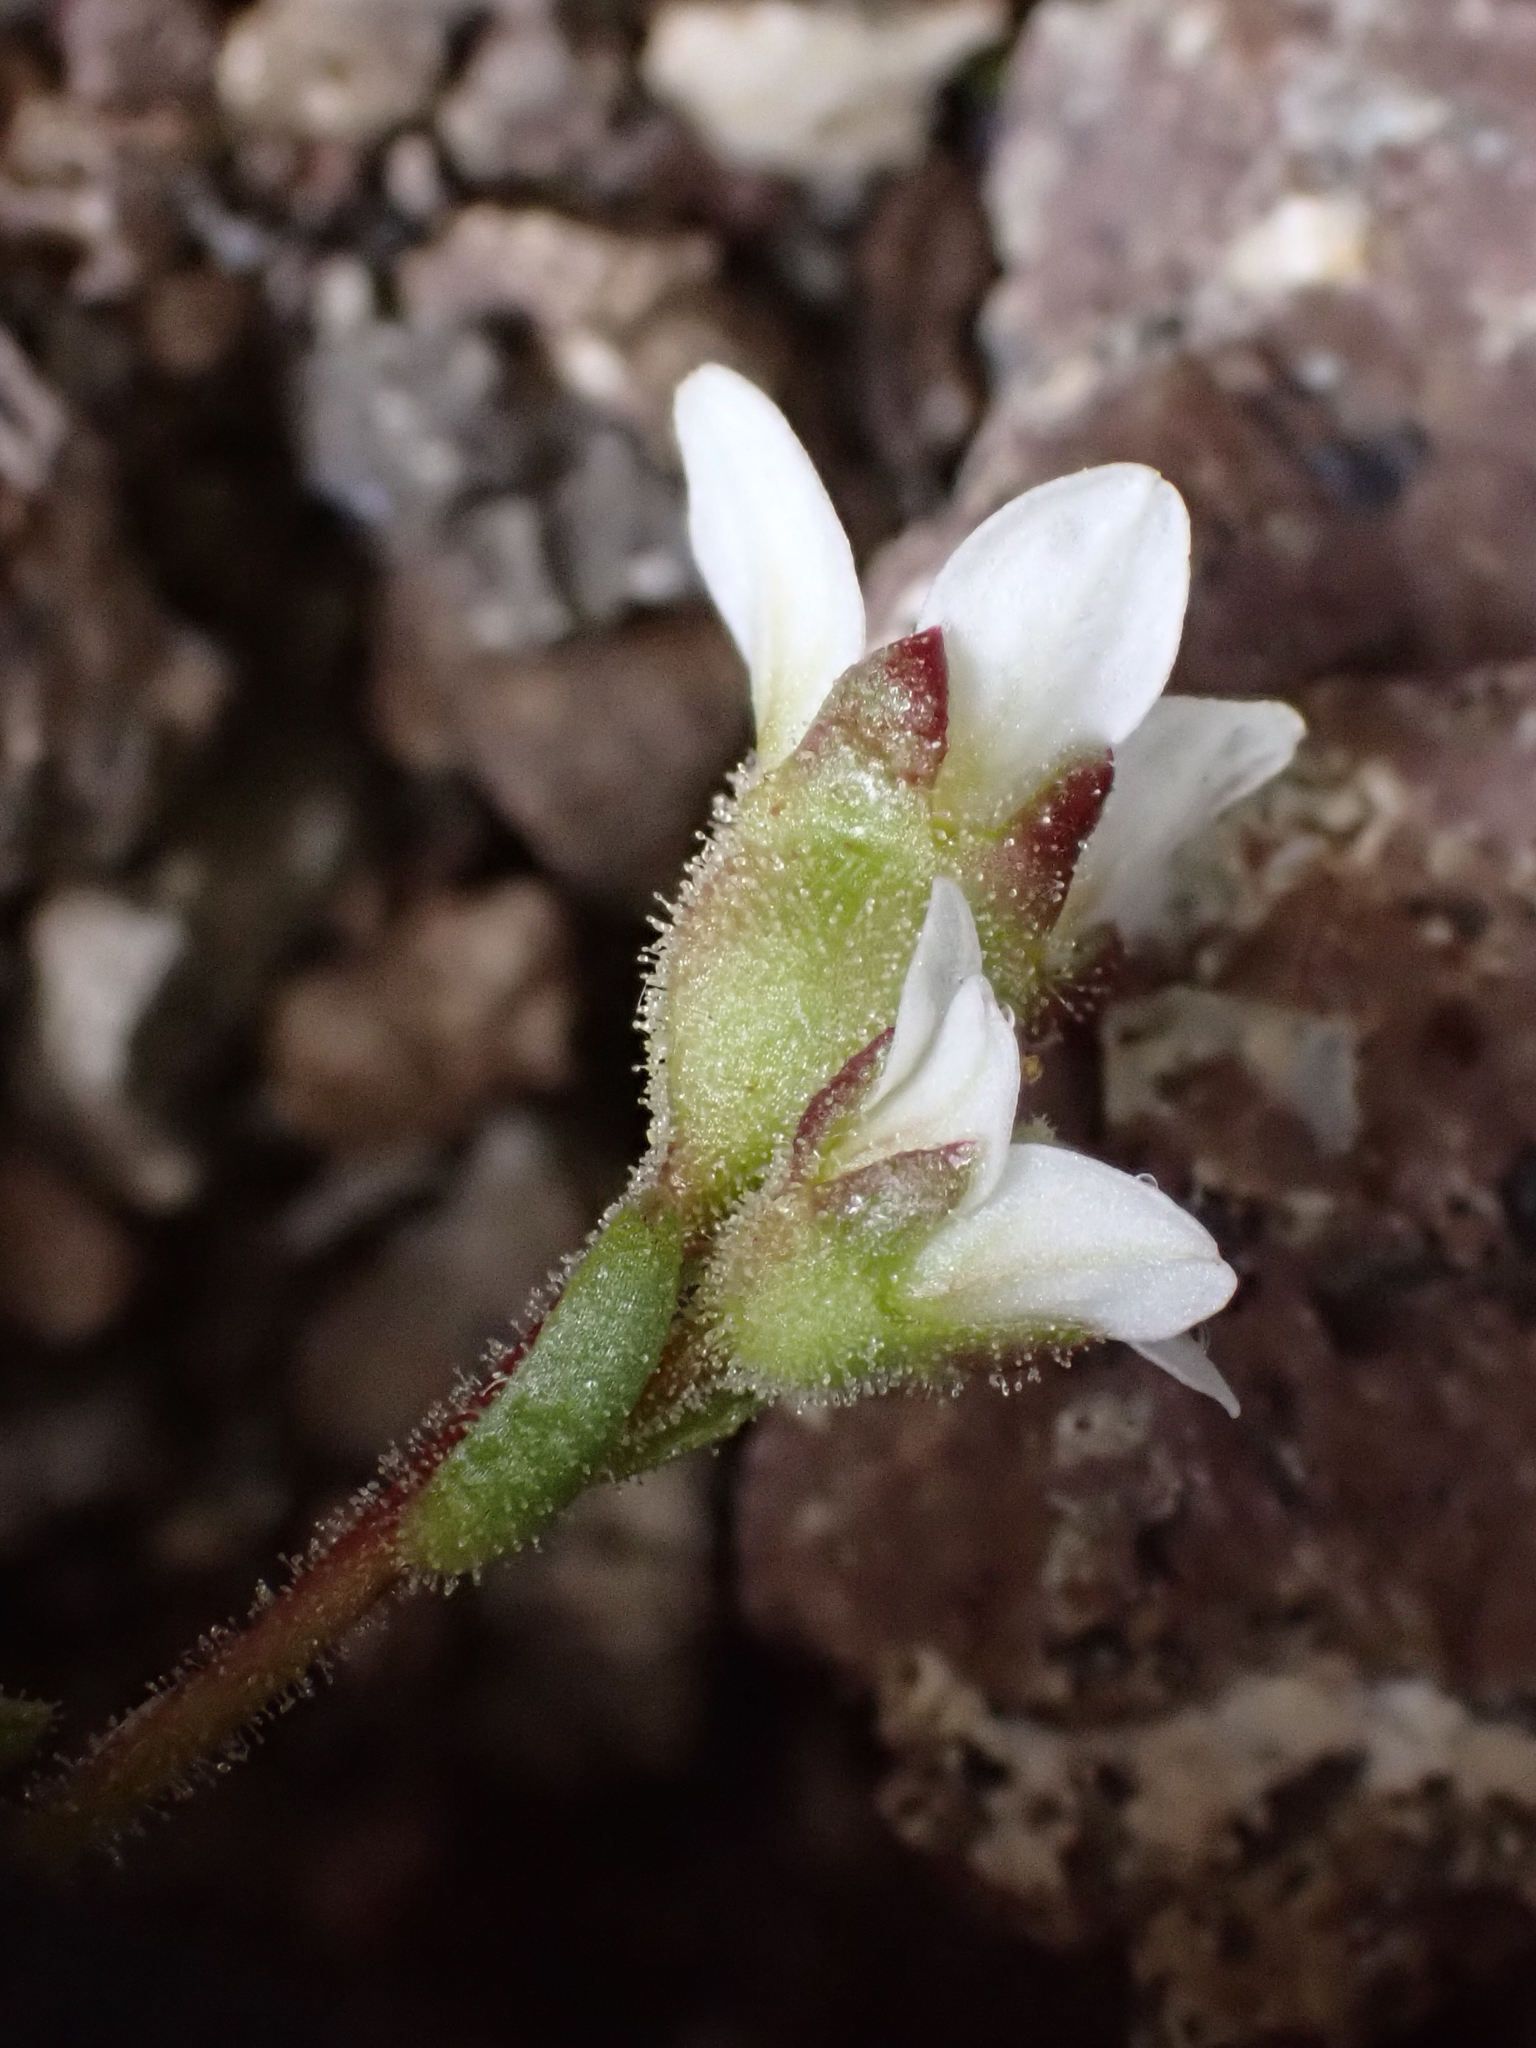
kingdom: Plantae
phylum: Tracheophyta
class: Magnoliopsida
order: Saxifragales
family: Saxifragaceae
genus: Saxifraga
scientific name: Saxifraga cespitosa
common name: Tufted saxifrage
